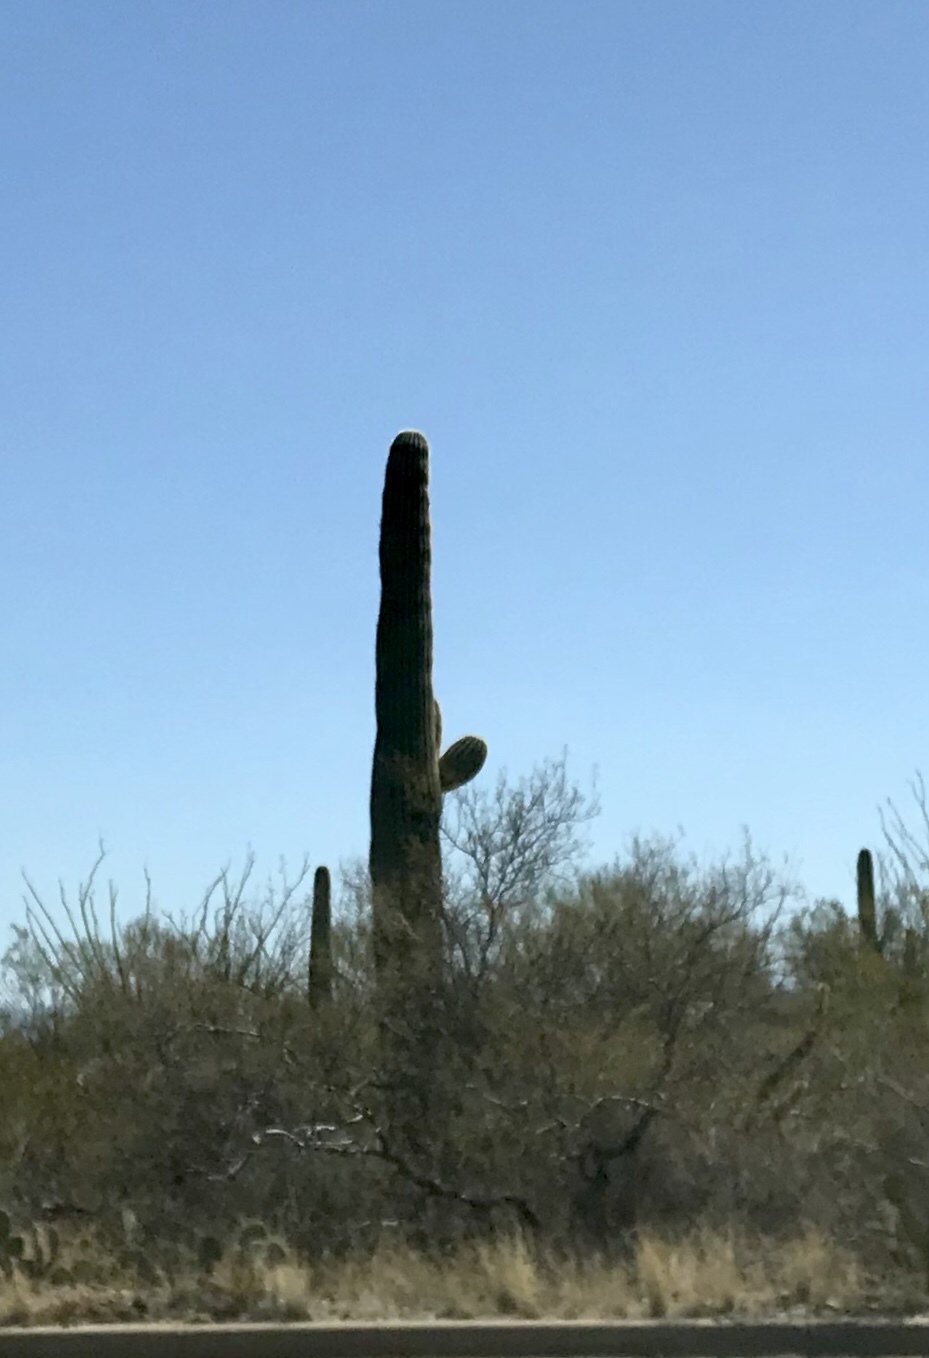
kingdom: Plantae
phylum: Tracheophyta
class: Magnoliopsida
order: Caryophyllales
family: Cactaceae
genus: Carnegiea
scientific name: Carnegiea gigantea
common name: Saguaro
